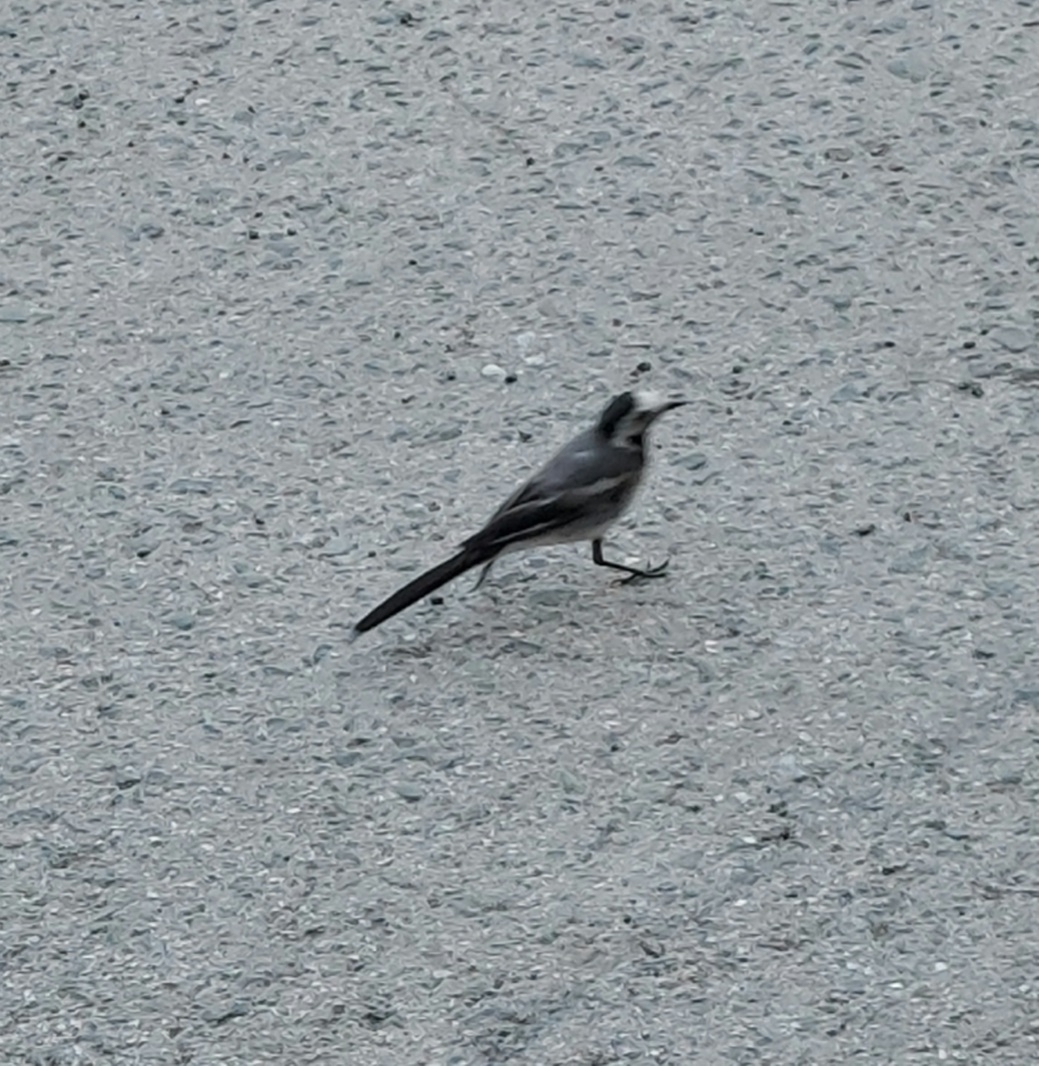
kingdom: Animalia
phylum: Chordata
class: Aves
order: Passeriformes
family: Motacillidae
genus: Motacilla
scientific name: Motacilla alba
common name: White wagtail
